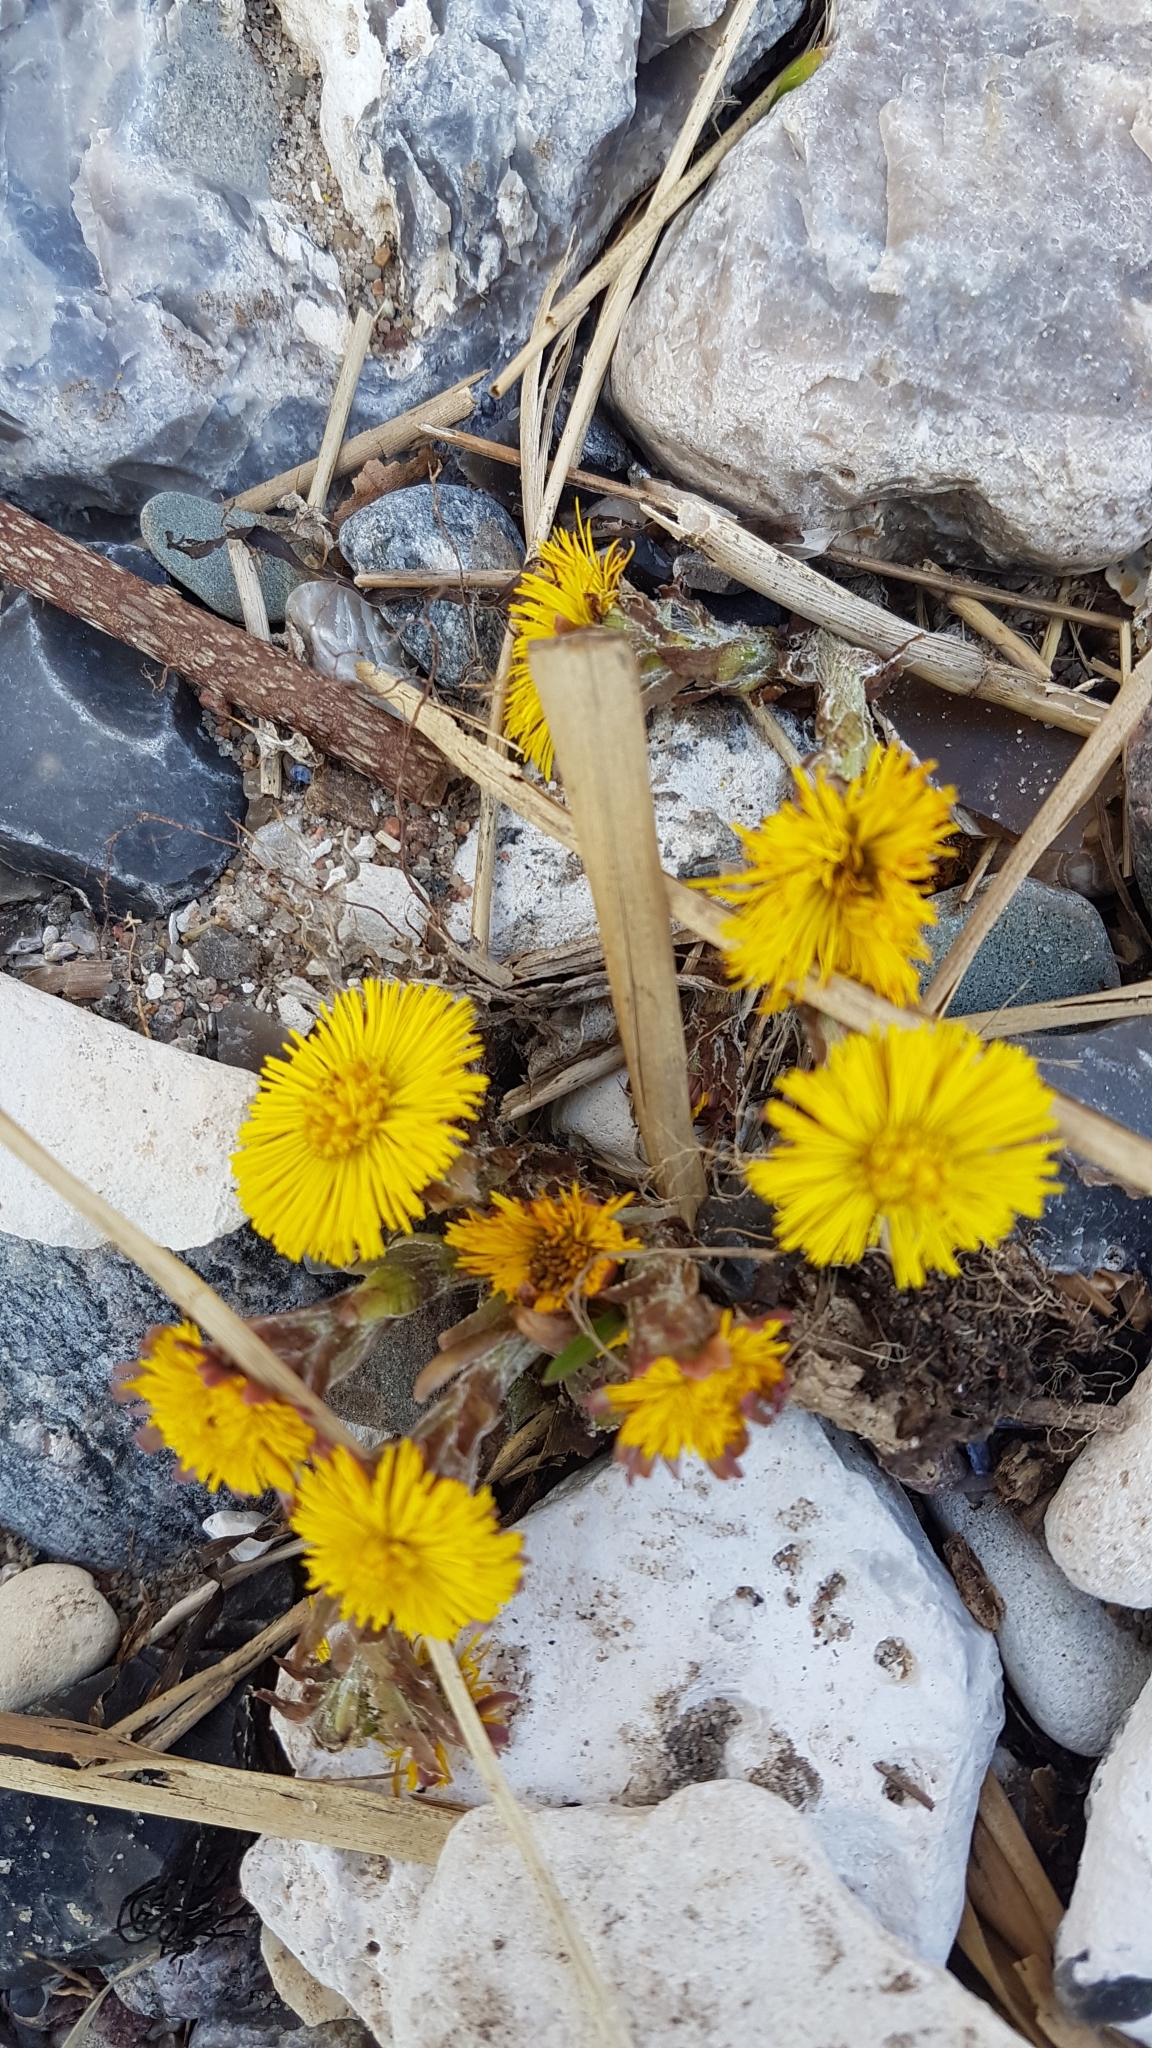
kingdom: Plantae
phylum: Tracheophyta
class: Magnoliopsida
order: Asterales
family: Asteraceae
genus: Tussilago
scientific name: Tussilago farfara
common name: Coltsfoot
